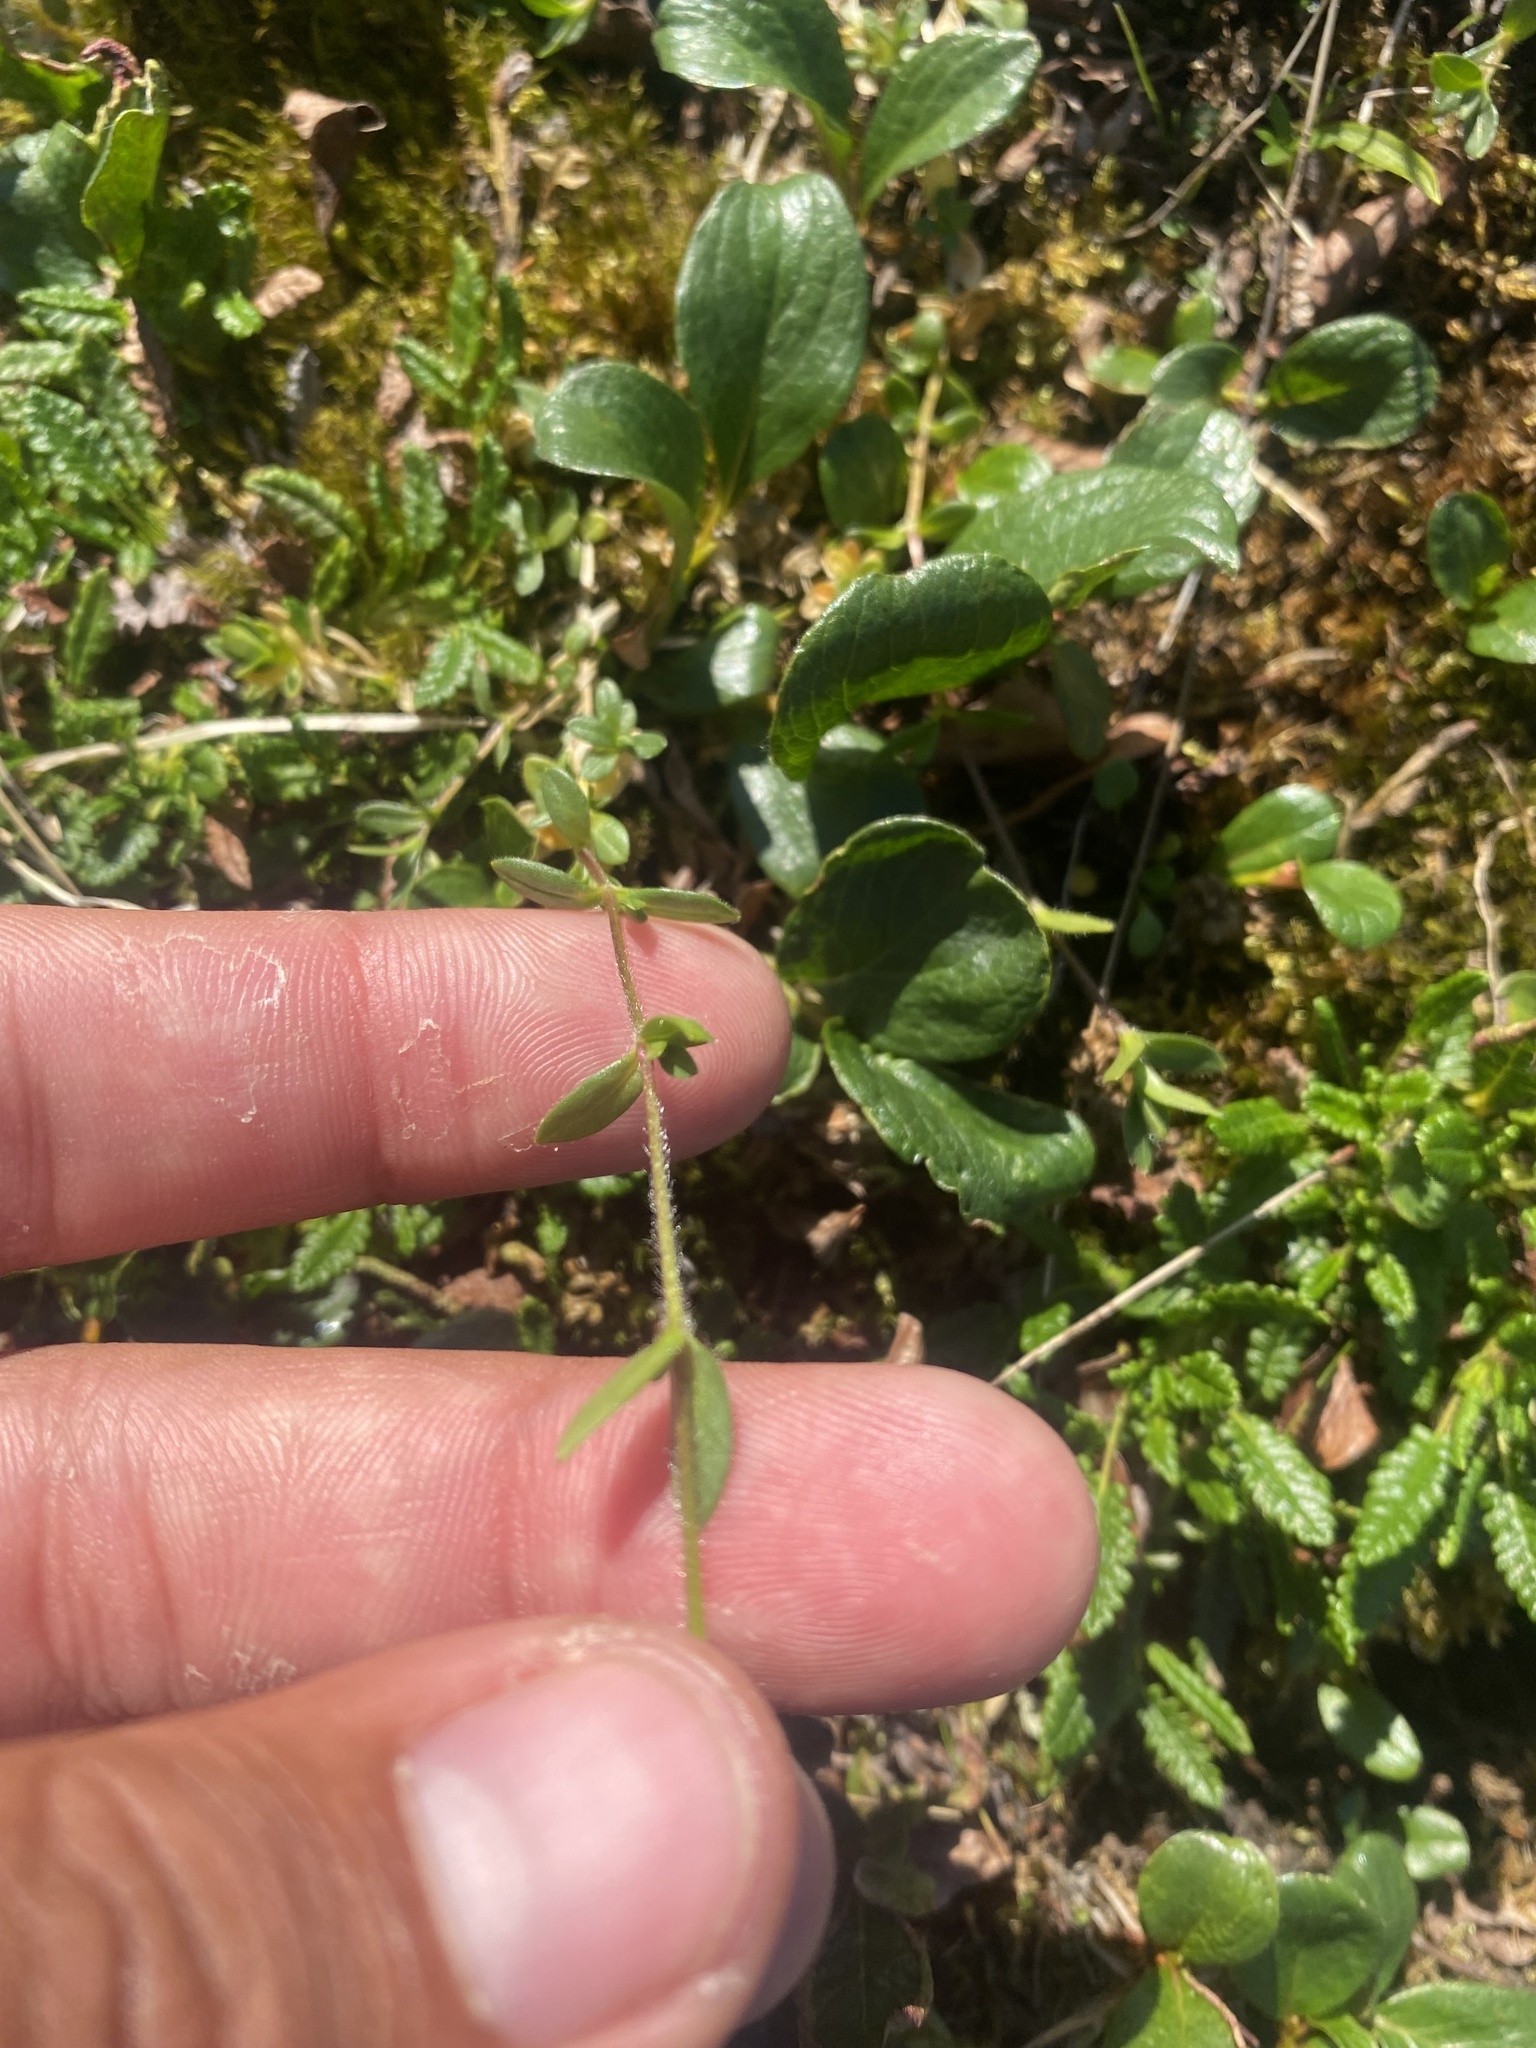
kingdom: Plantae
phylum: Tracheophyta
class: Magnoliopsida
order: Caryophyllales
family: Caryophyllaceae
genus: Cerastium
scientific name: Cerastium regelii
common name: Regel's chickweed
